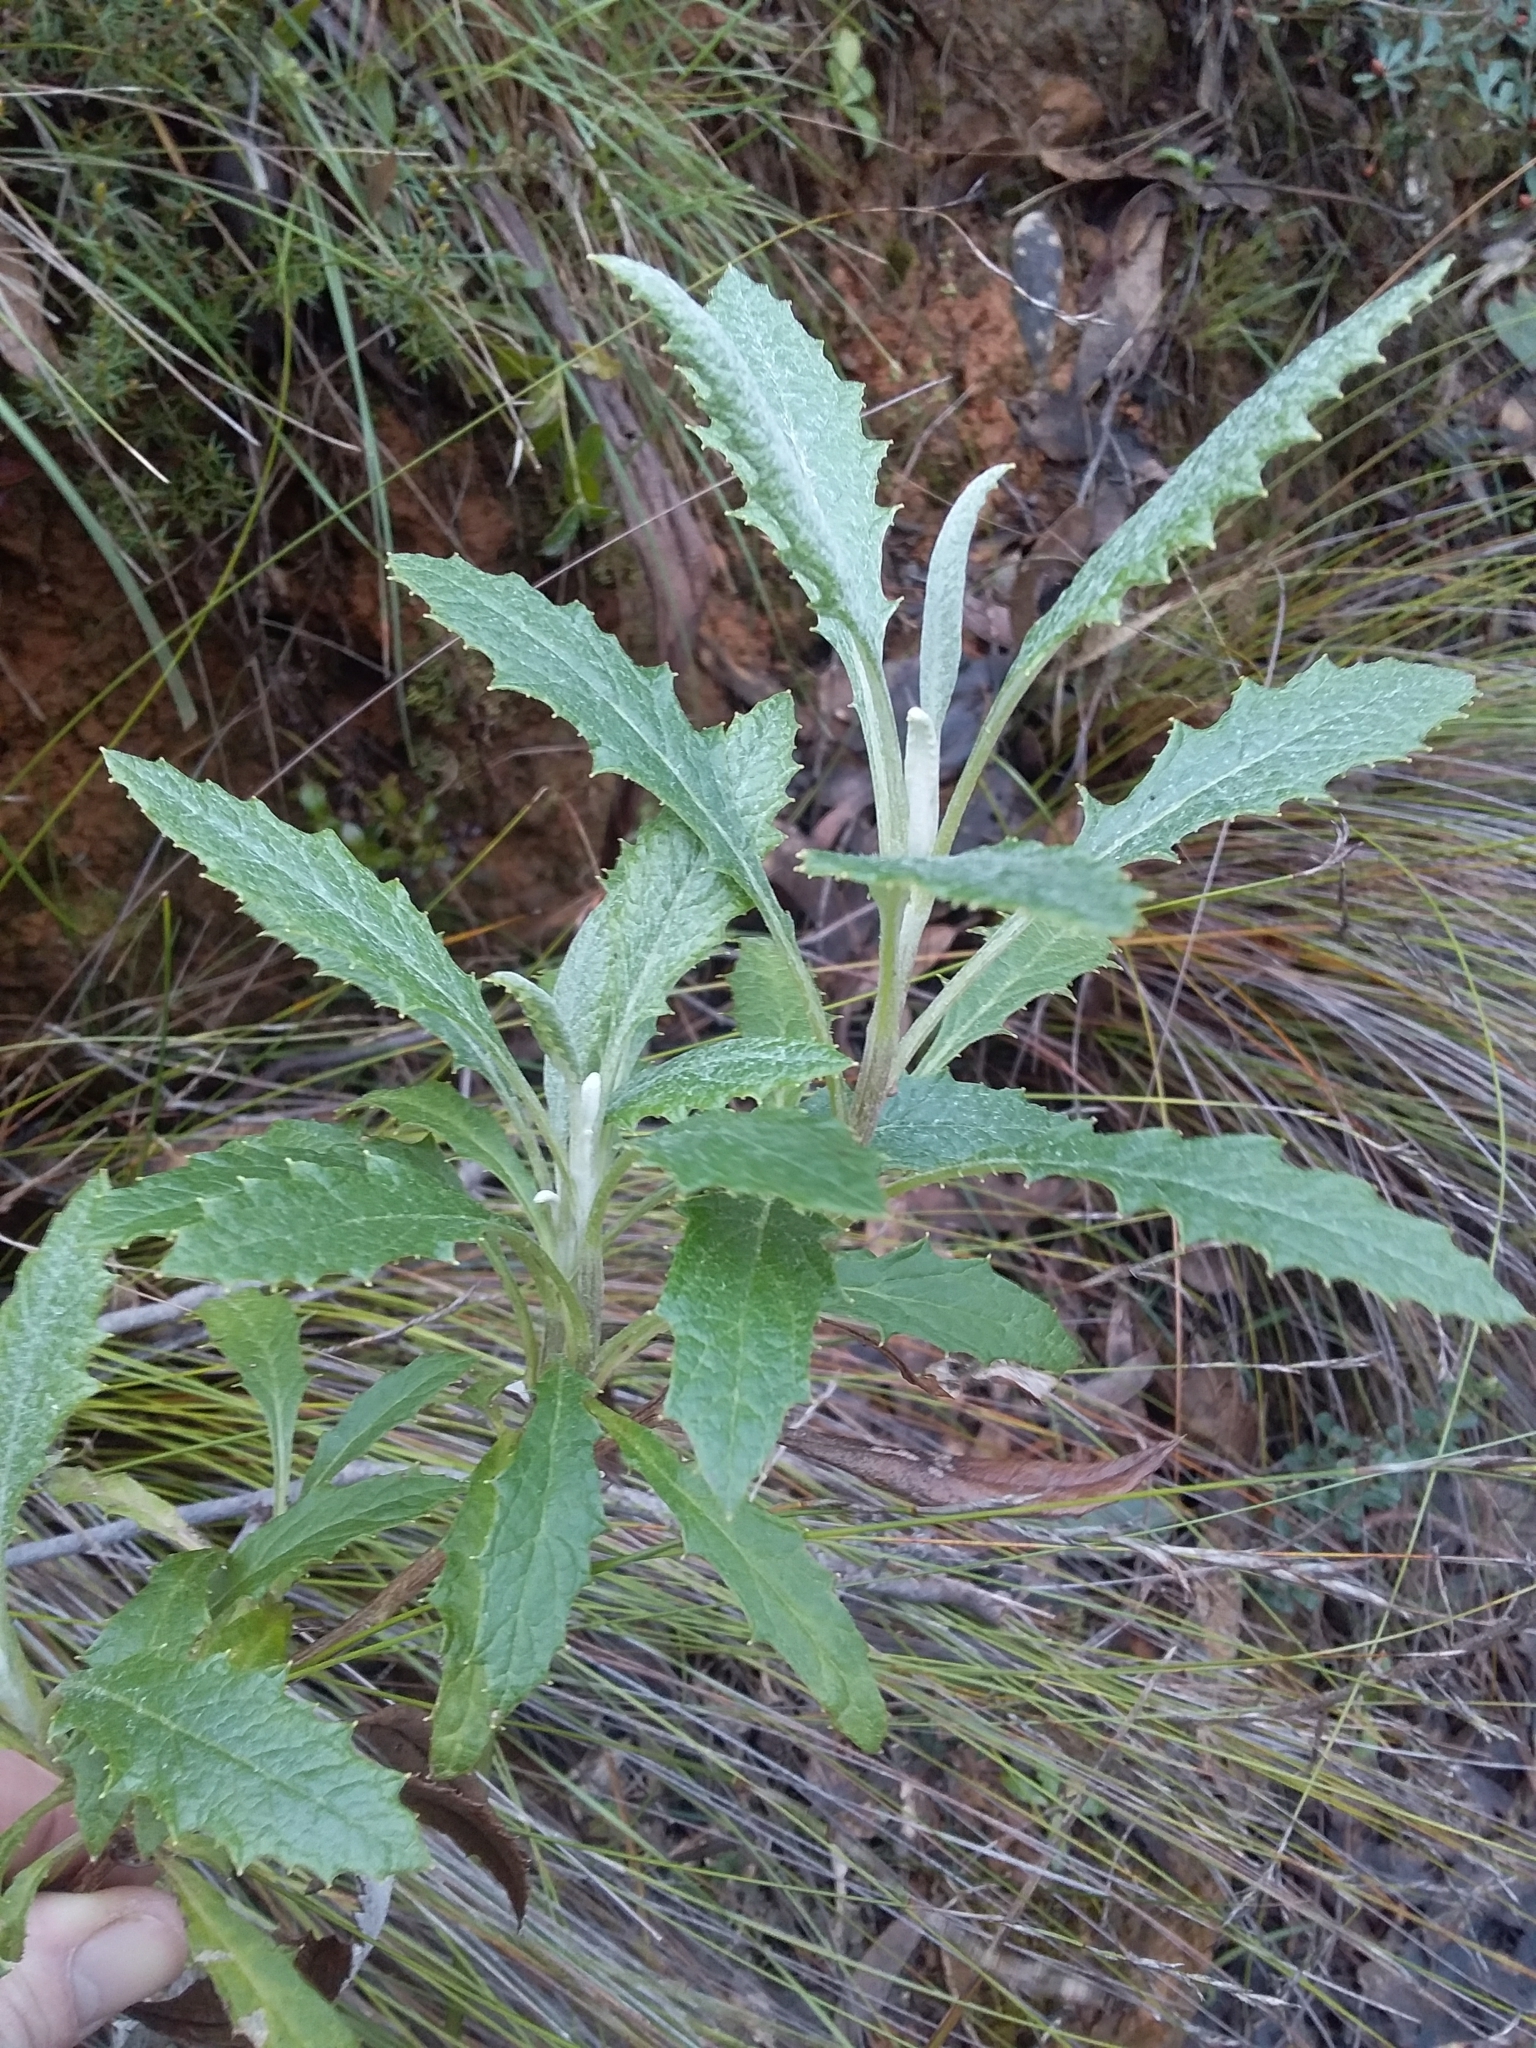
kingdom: Plantae
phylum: Tracheophyta
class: Magnoliopsida
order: Asterales
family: Asteraceae
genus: Senecio
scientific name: Senecio hypoleucus
